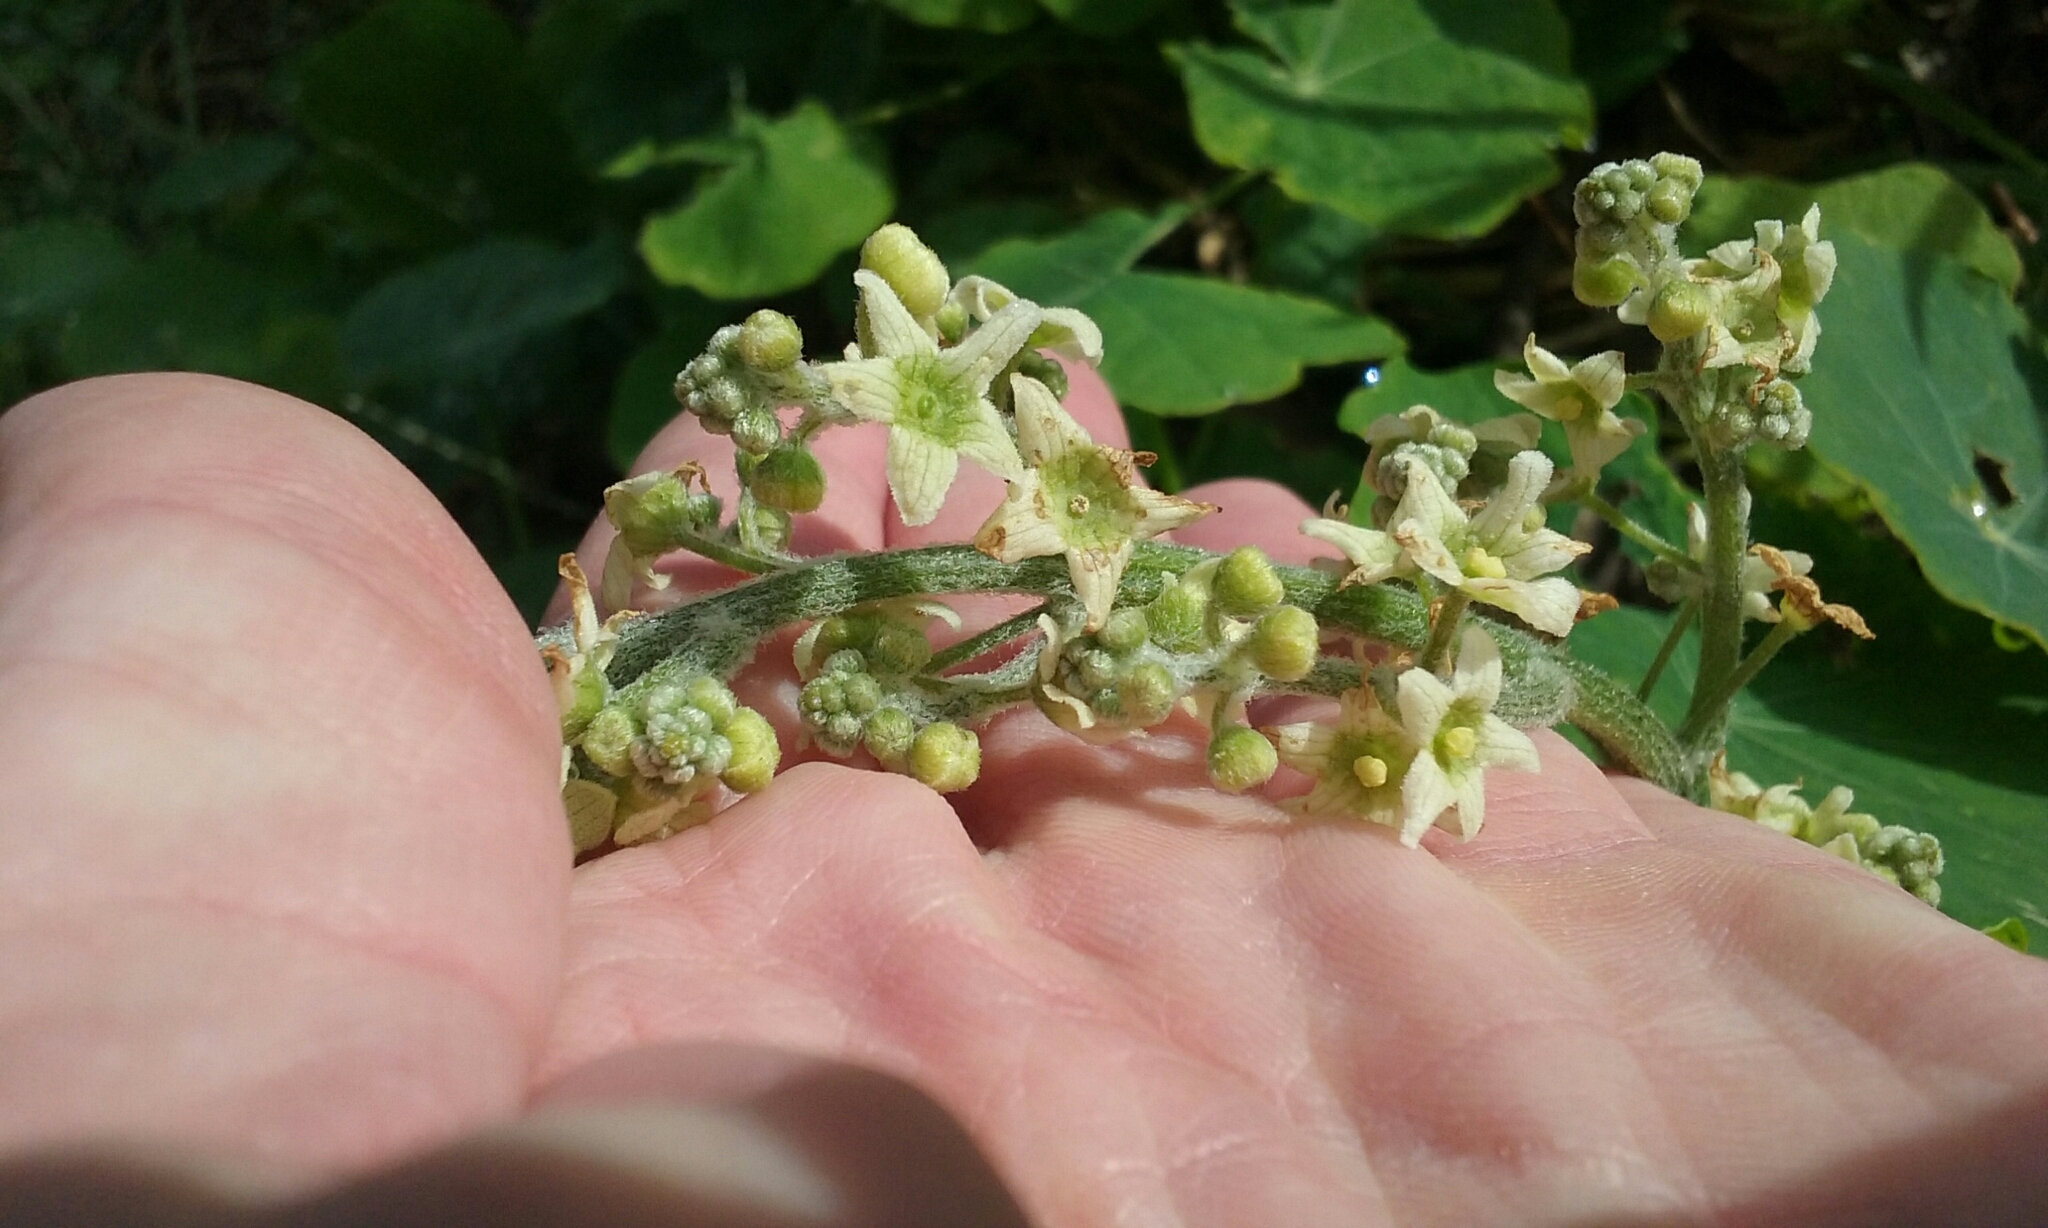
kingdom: Plantae
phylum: Tracheophyta
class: Magnoliopsida
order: Cucurbitales
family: Cucurbitaceae
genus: Marah
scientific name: Marah fabacea
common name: California manroot
